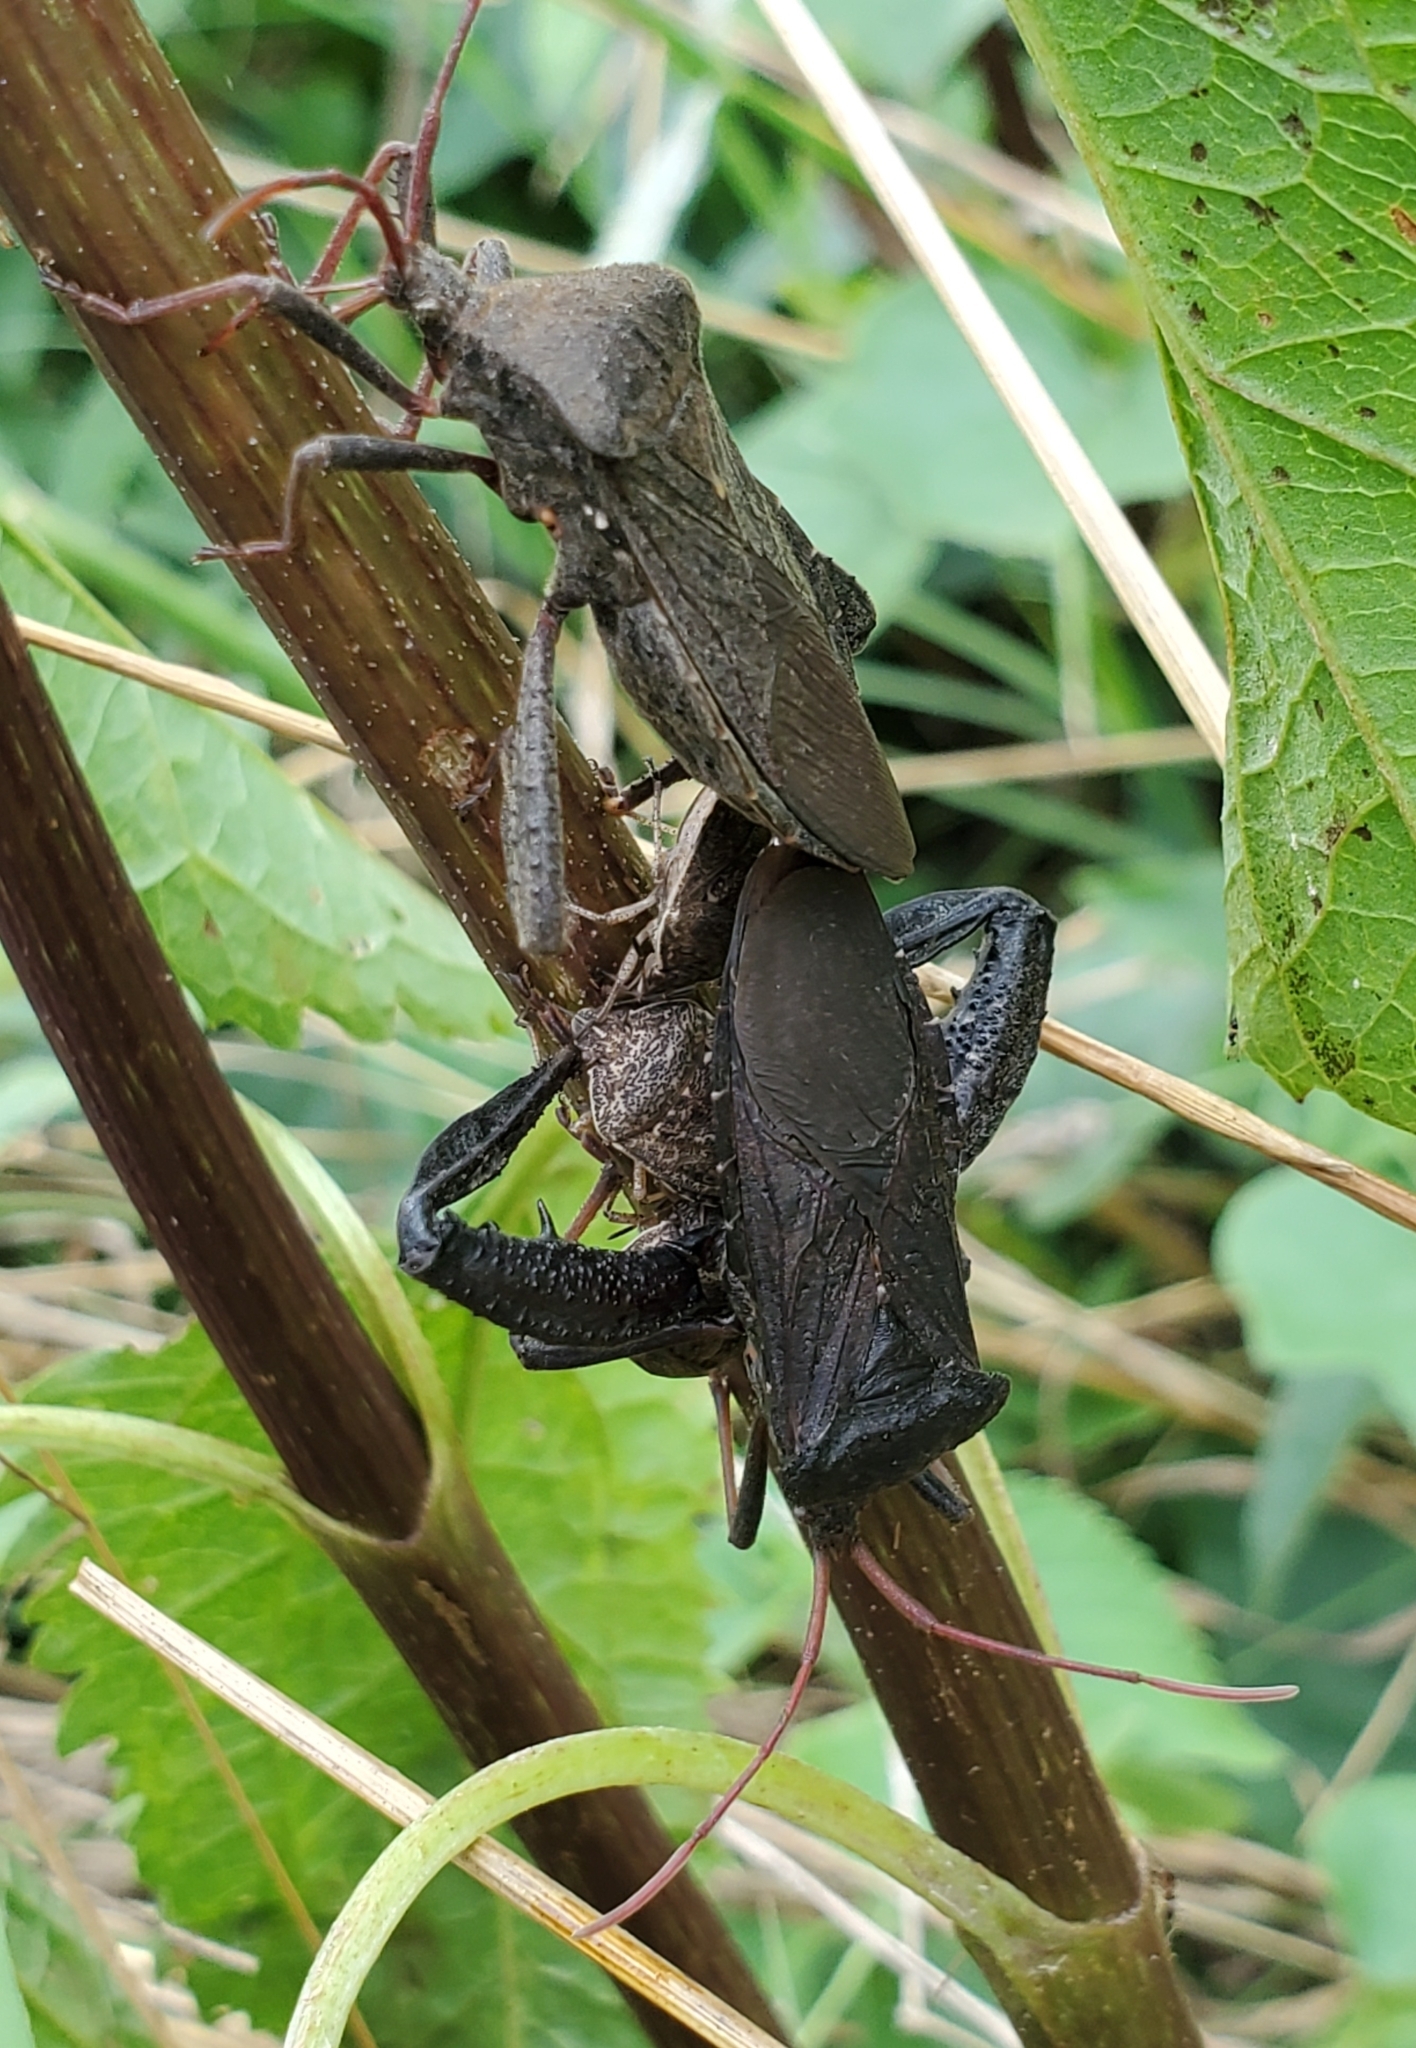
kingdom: Animalia
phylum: Arthropoda
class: Insecta
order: Hemiptera
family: Coreidae
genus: Acanthocephala
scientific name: Acanthocephala femorata
